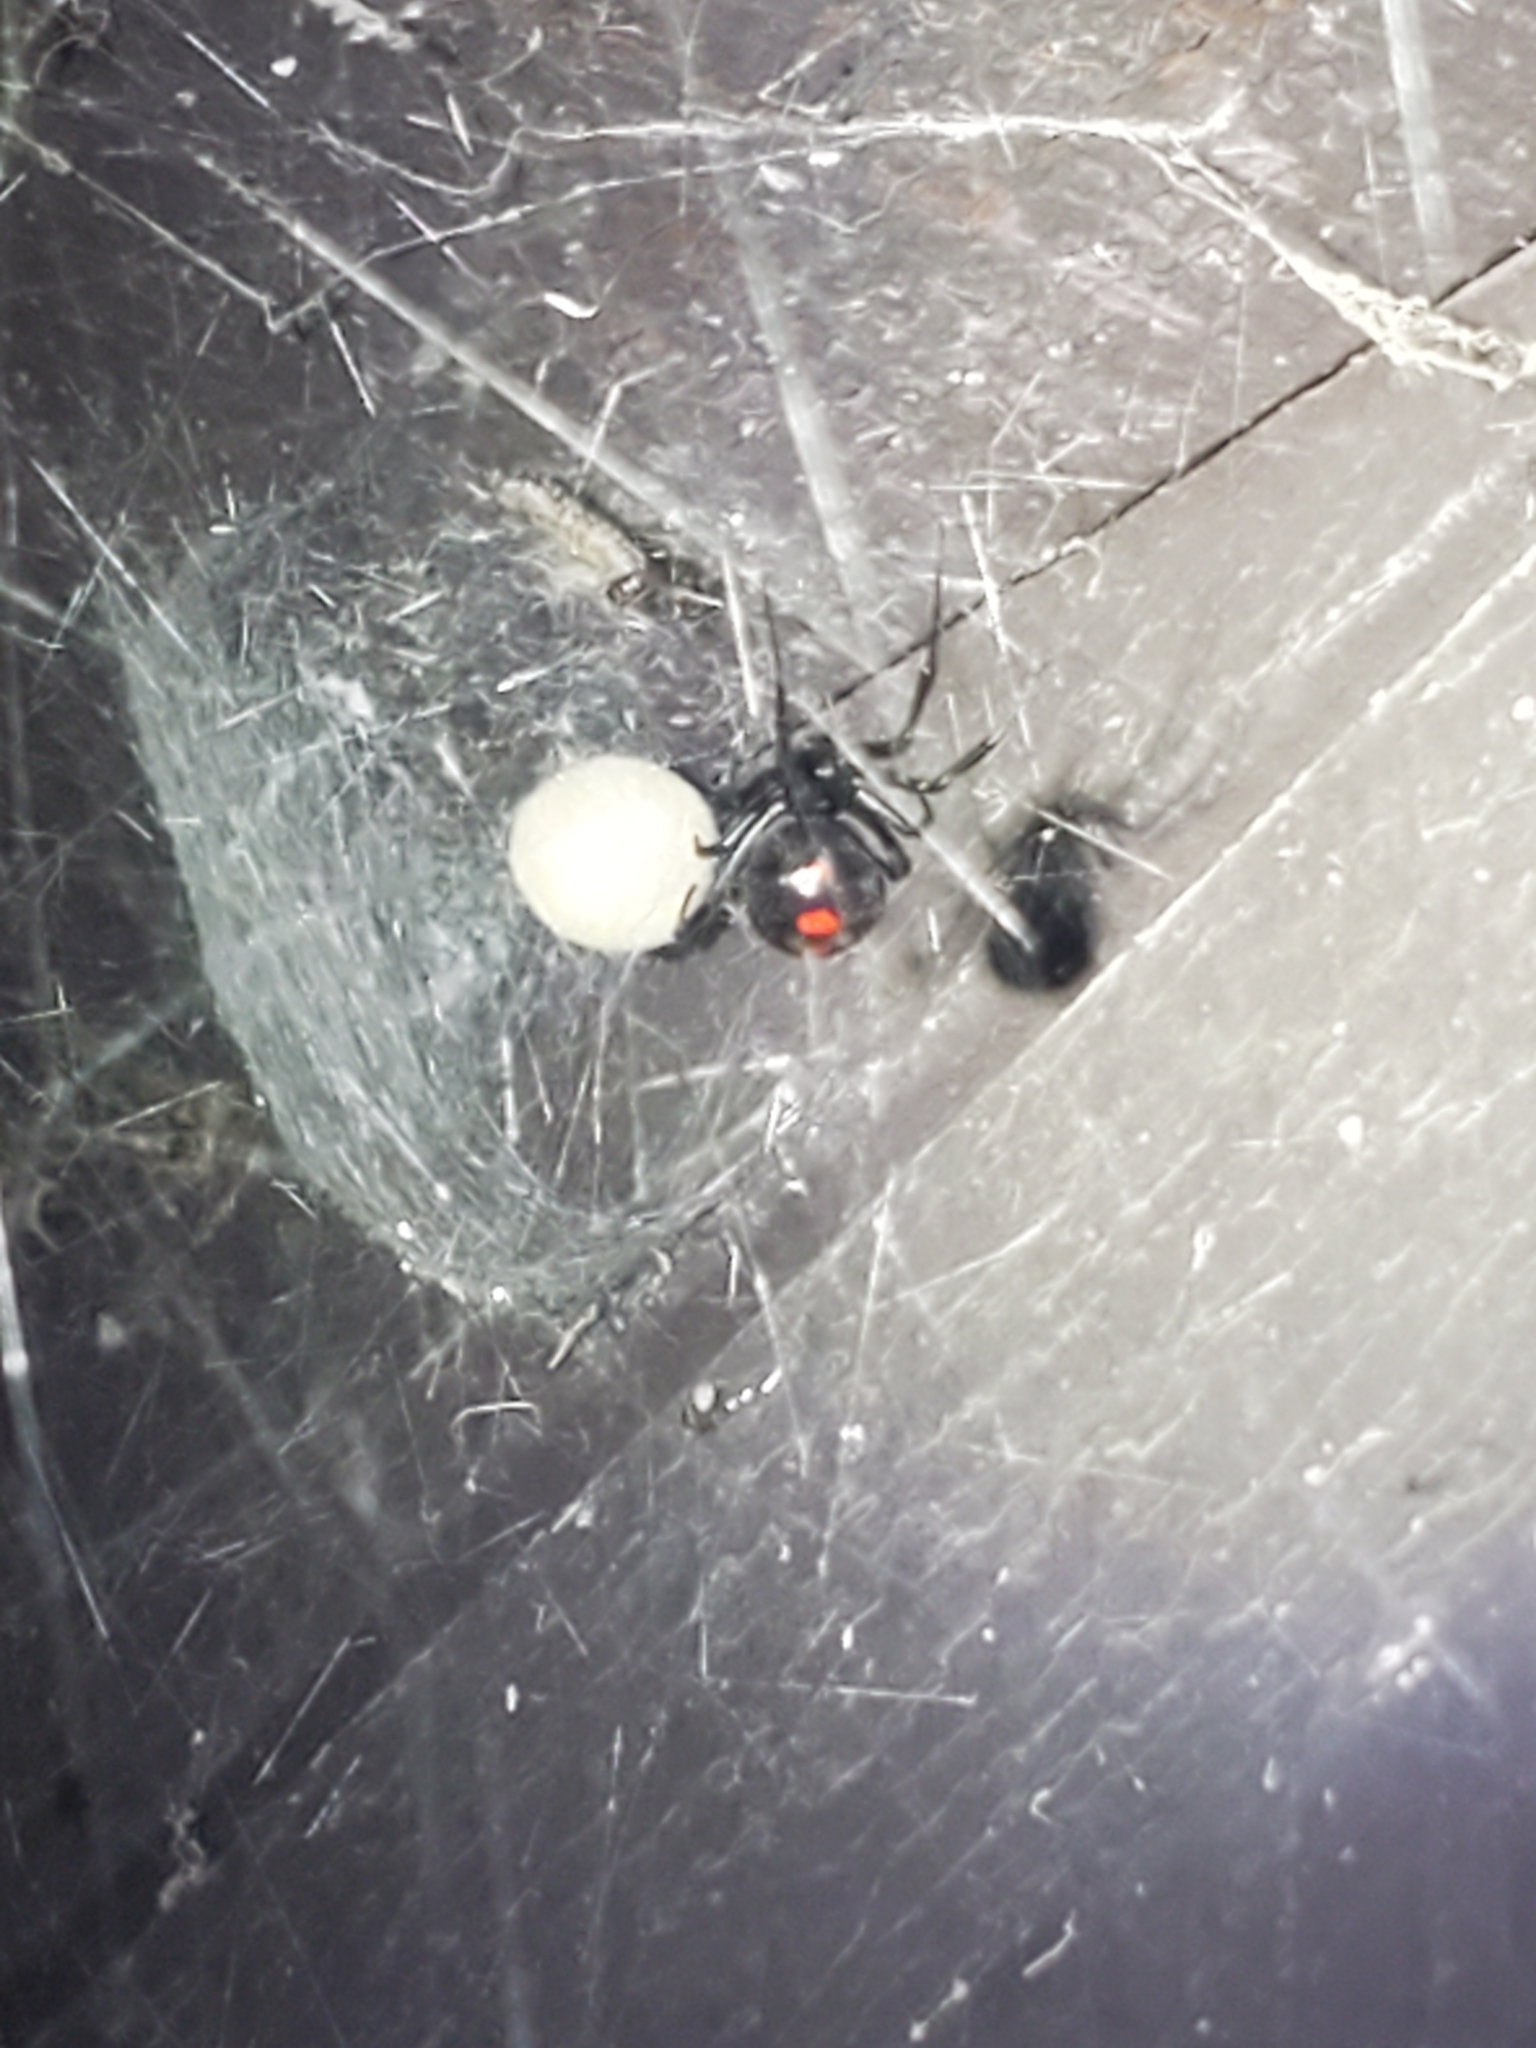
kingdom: Animalia
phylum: Arthropoda
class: Arachnida
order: Araneae
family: Theridiidae
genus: Latrodectus
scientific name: Latrodectus variolus
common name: Northern black widow
